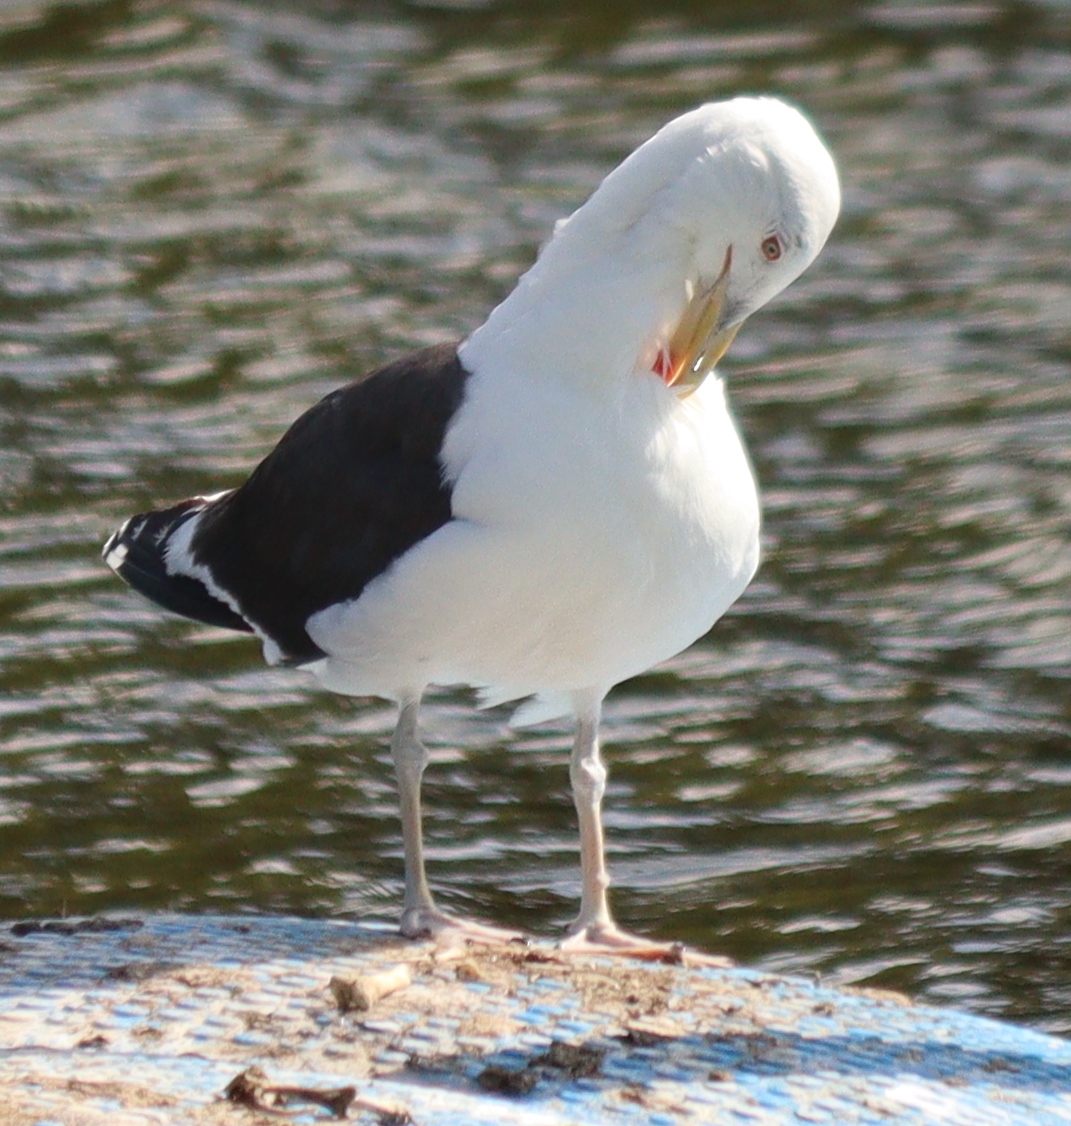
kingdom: Animalia
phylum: Chordata
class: Aves
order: Charadriiformes
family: Laridae
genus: Larus
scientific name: Larus marinus
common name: Great black-backed gull
